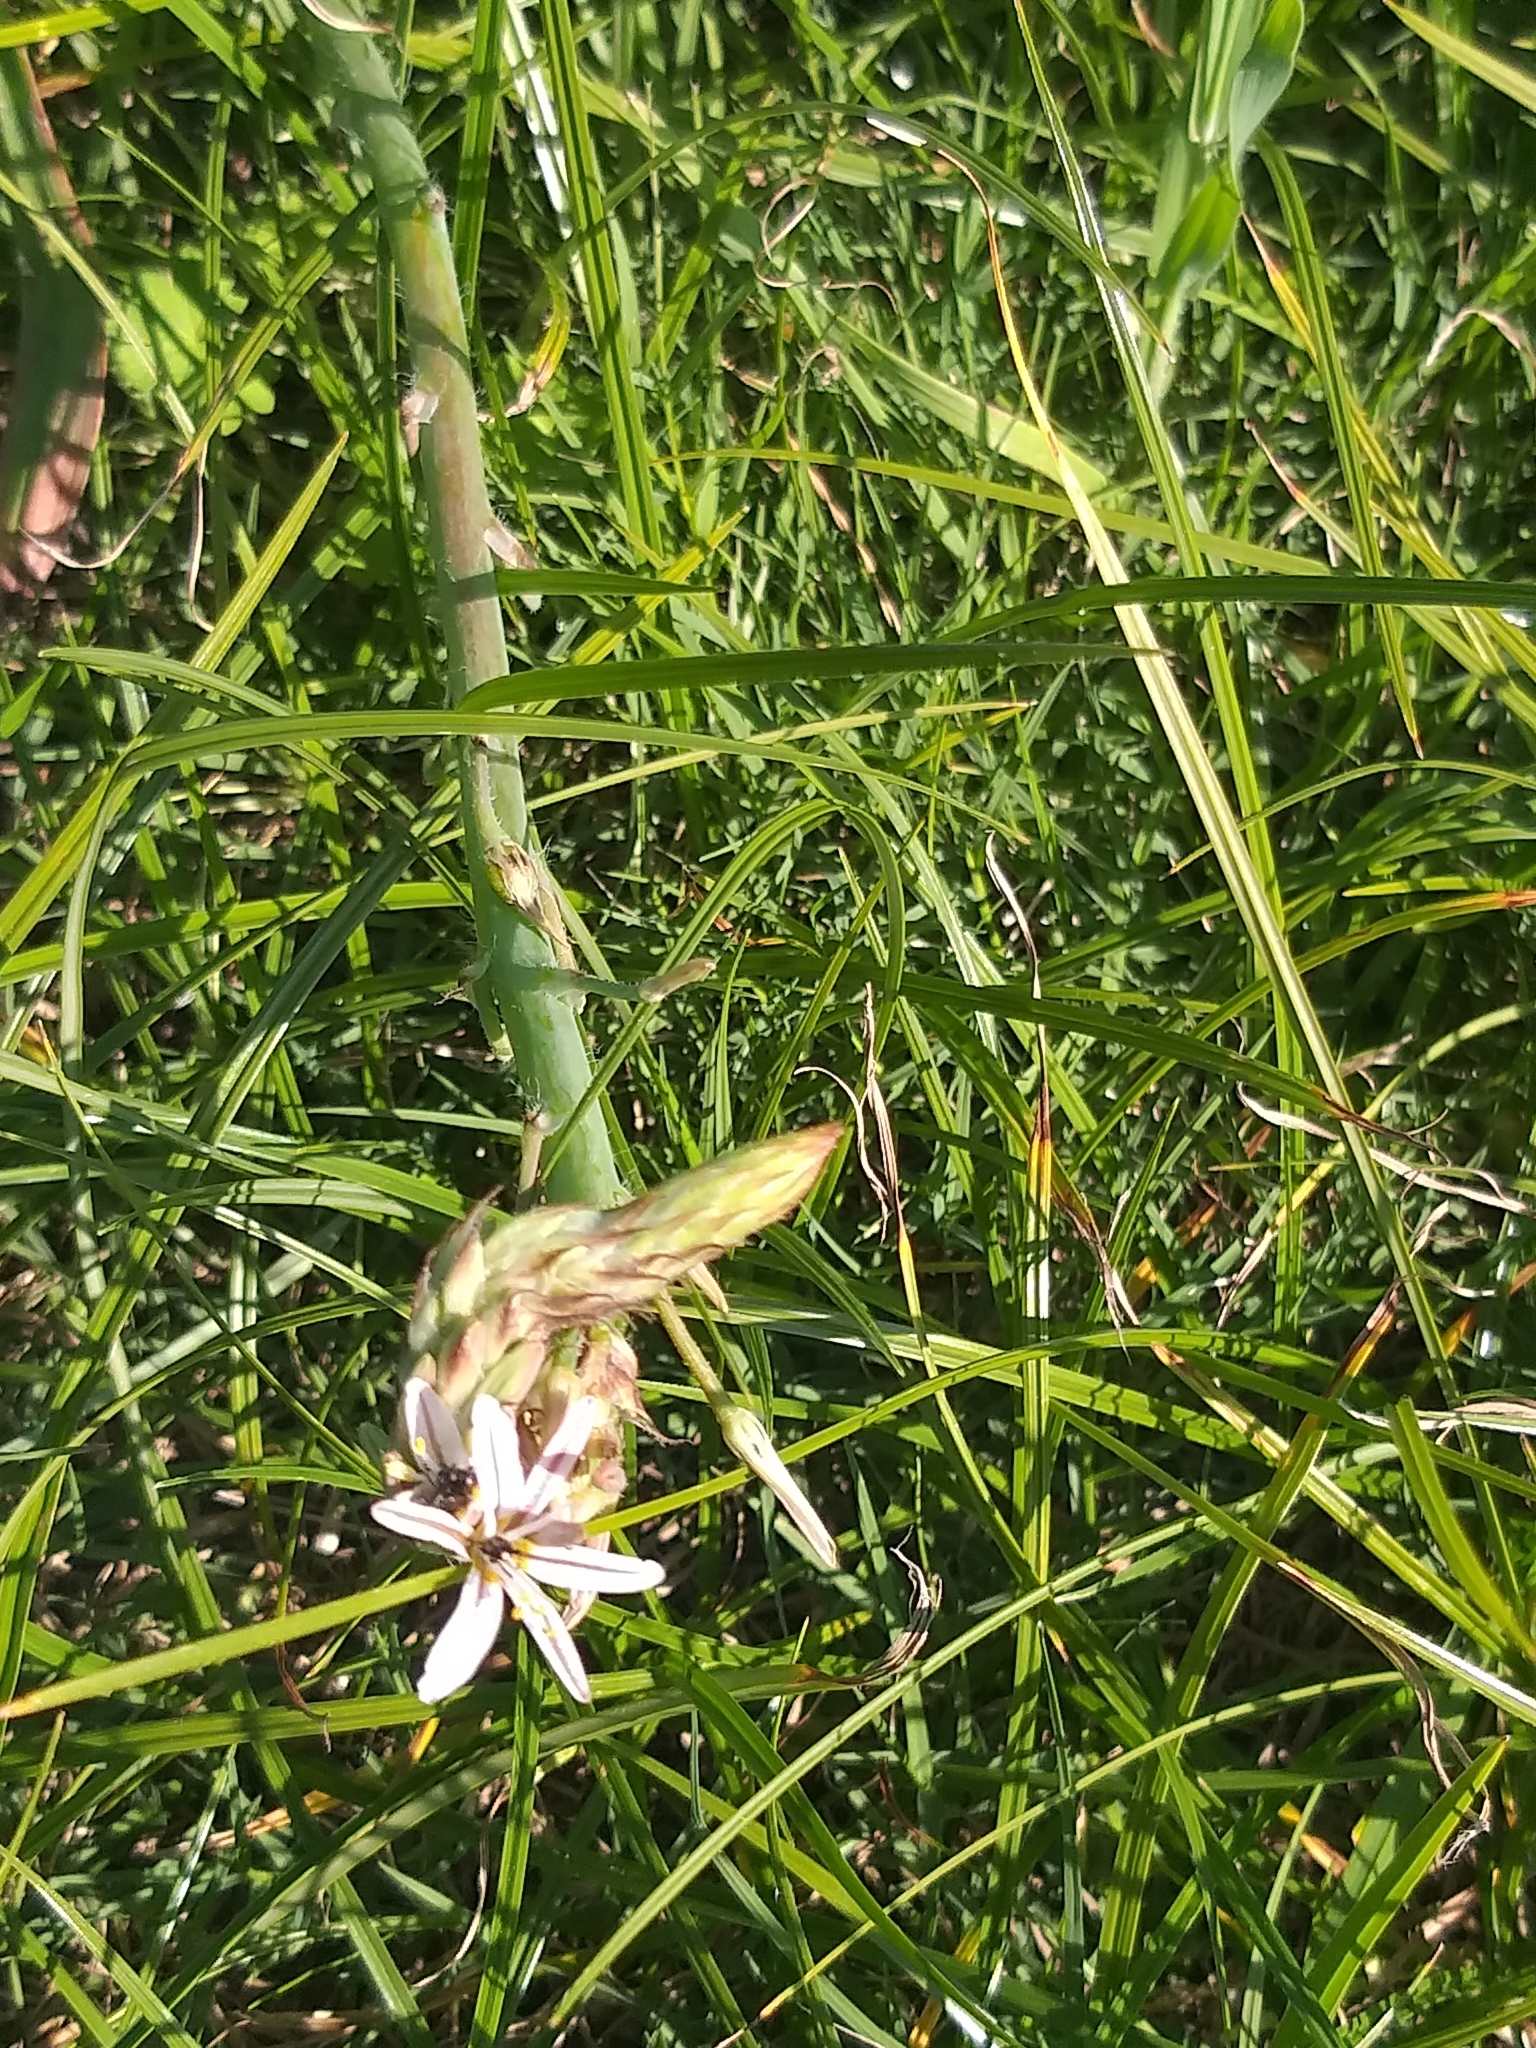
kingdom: Plantae
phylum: Tracheophyta
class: Liliopsida
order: Asparagales
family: Asphodelaceae
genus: Trachyandra
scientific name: Trachyandra ciliata
